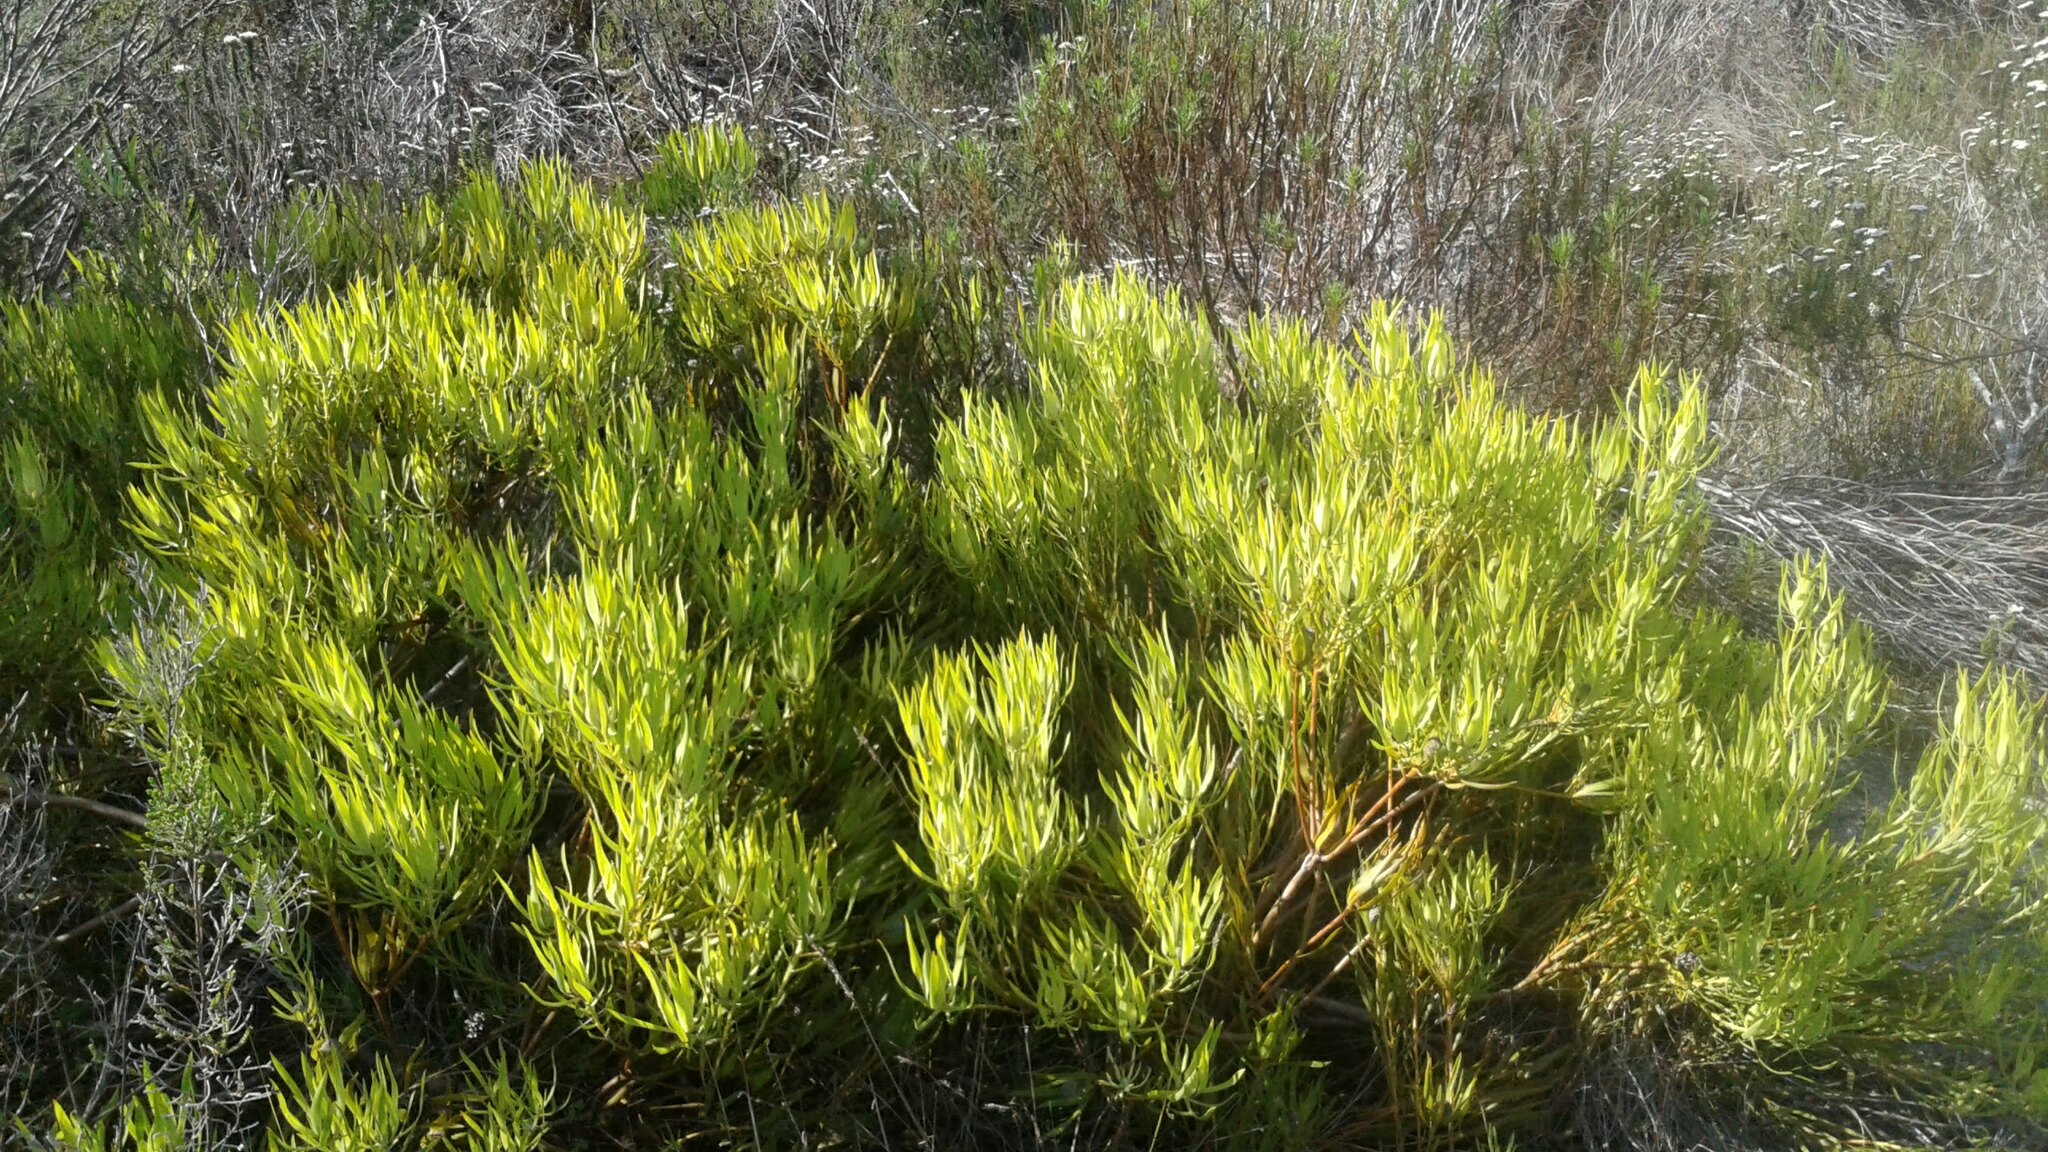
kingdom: Plantae
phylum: Tracheophyta
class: Magnoliopsida
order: Proteales
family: Proteaceae
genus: Leucadendron
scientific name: Leucadendron salignum
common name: Common sunshine conebush
